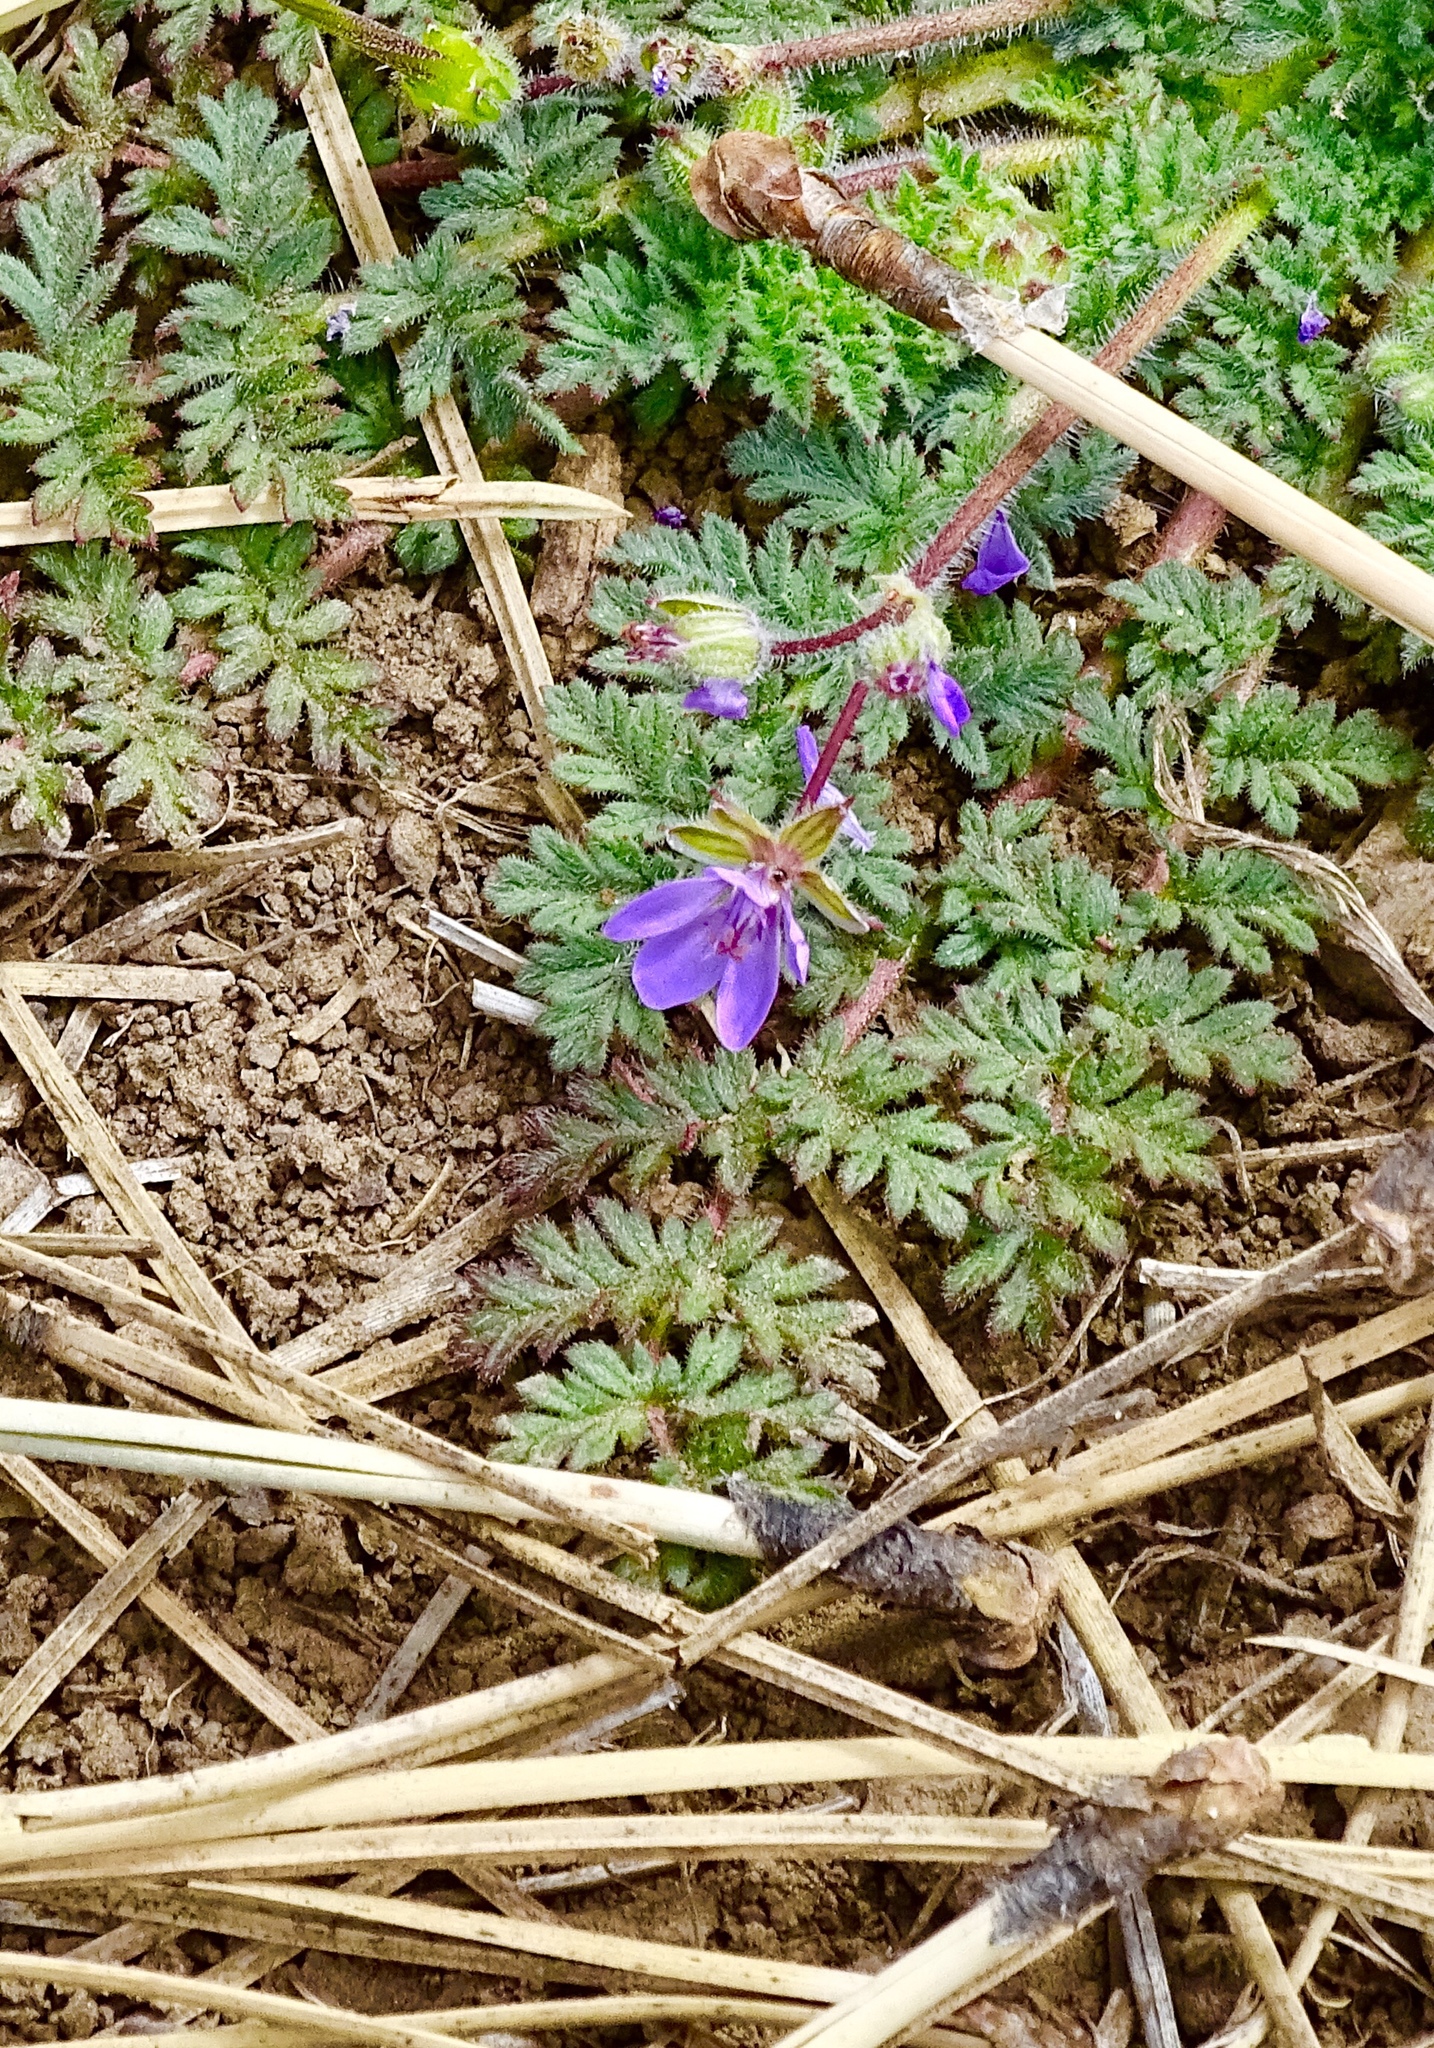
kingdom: Plantae
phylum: Tracheophyta
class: Magnoliopsida
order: Geraniales
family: Geraniaceae
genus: Erodium
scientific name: Erodium cicutarium
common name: Common stork's-bill
